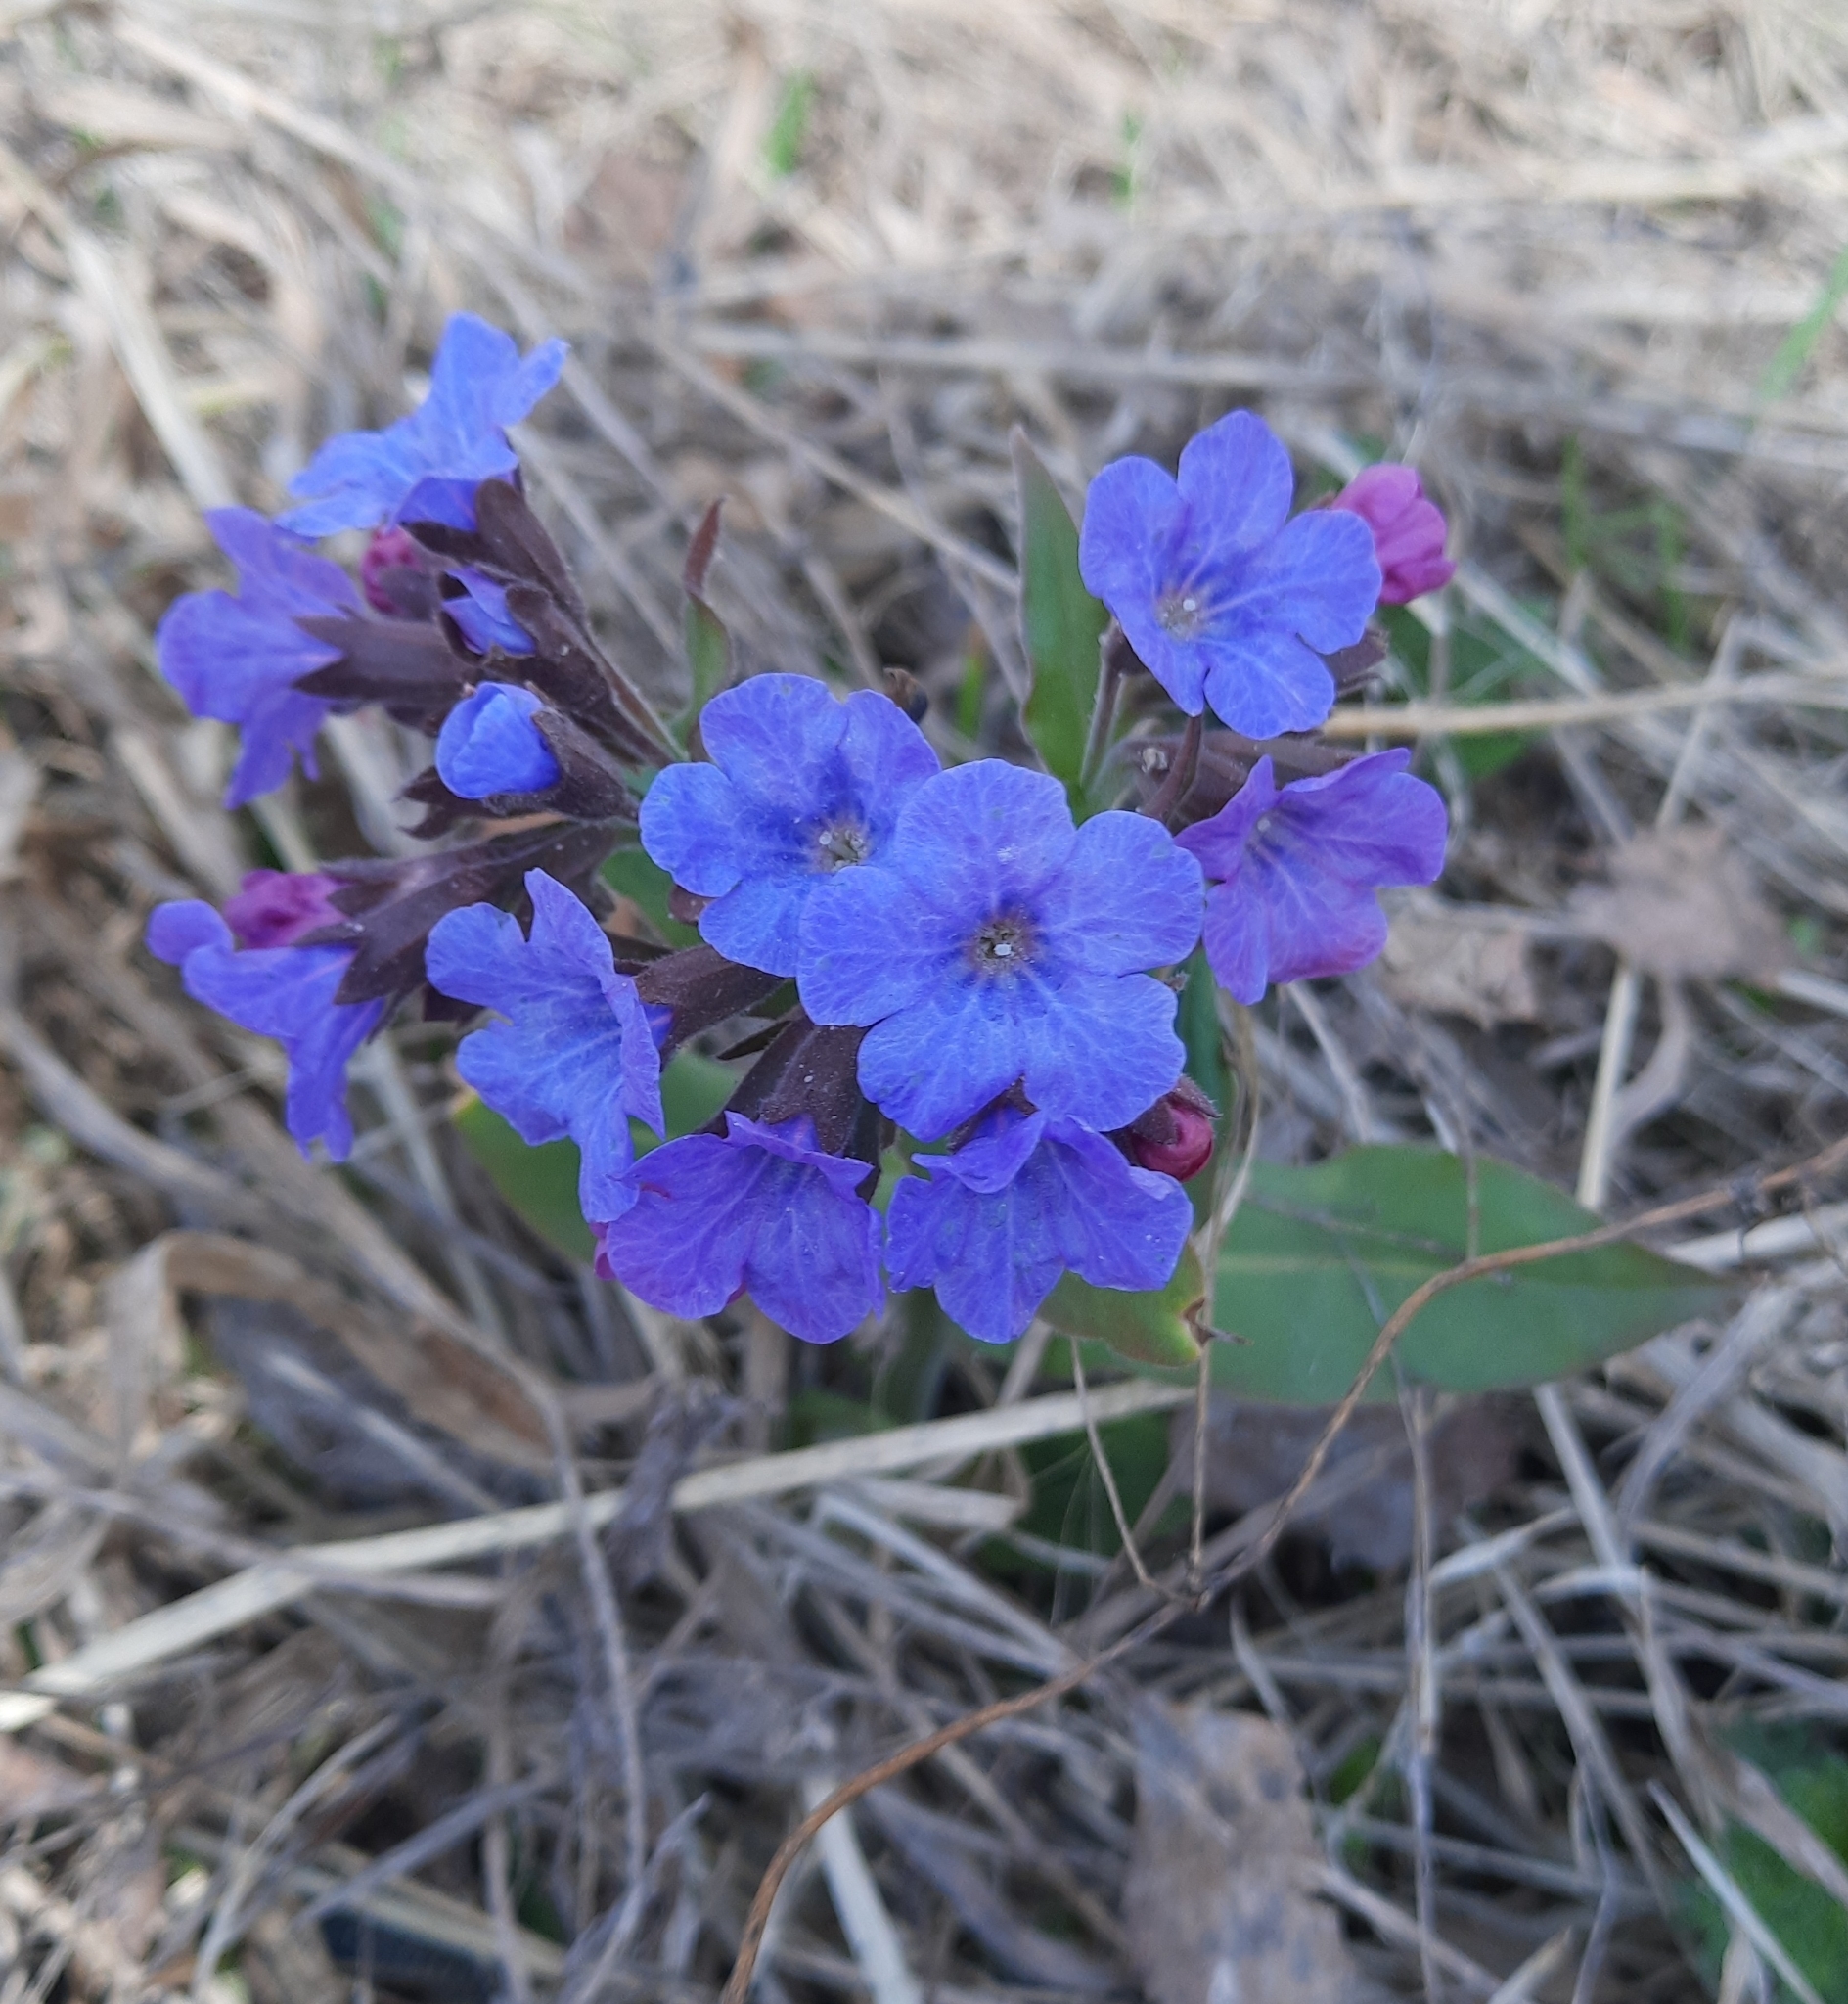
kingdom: Plantae
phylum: Tracheophyta
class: Magnoliopsida
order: Boraginales
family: Boraginaceae
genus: Pulmonaria
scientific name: Pulmonaria mollis
